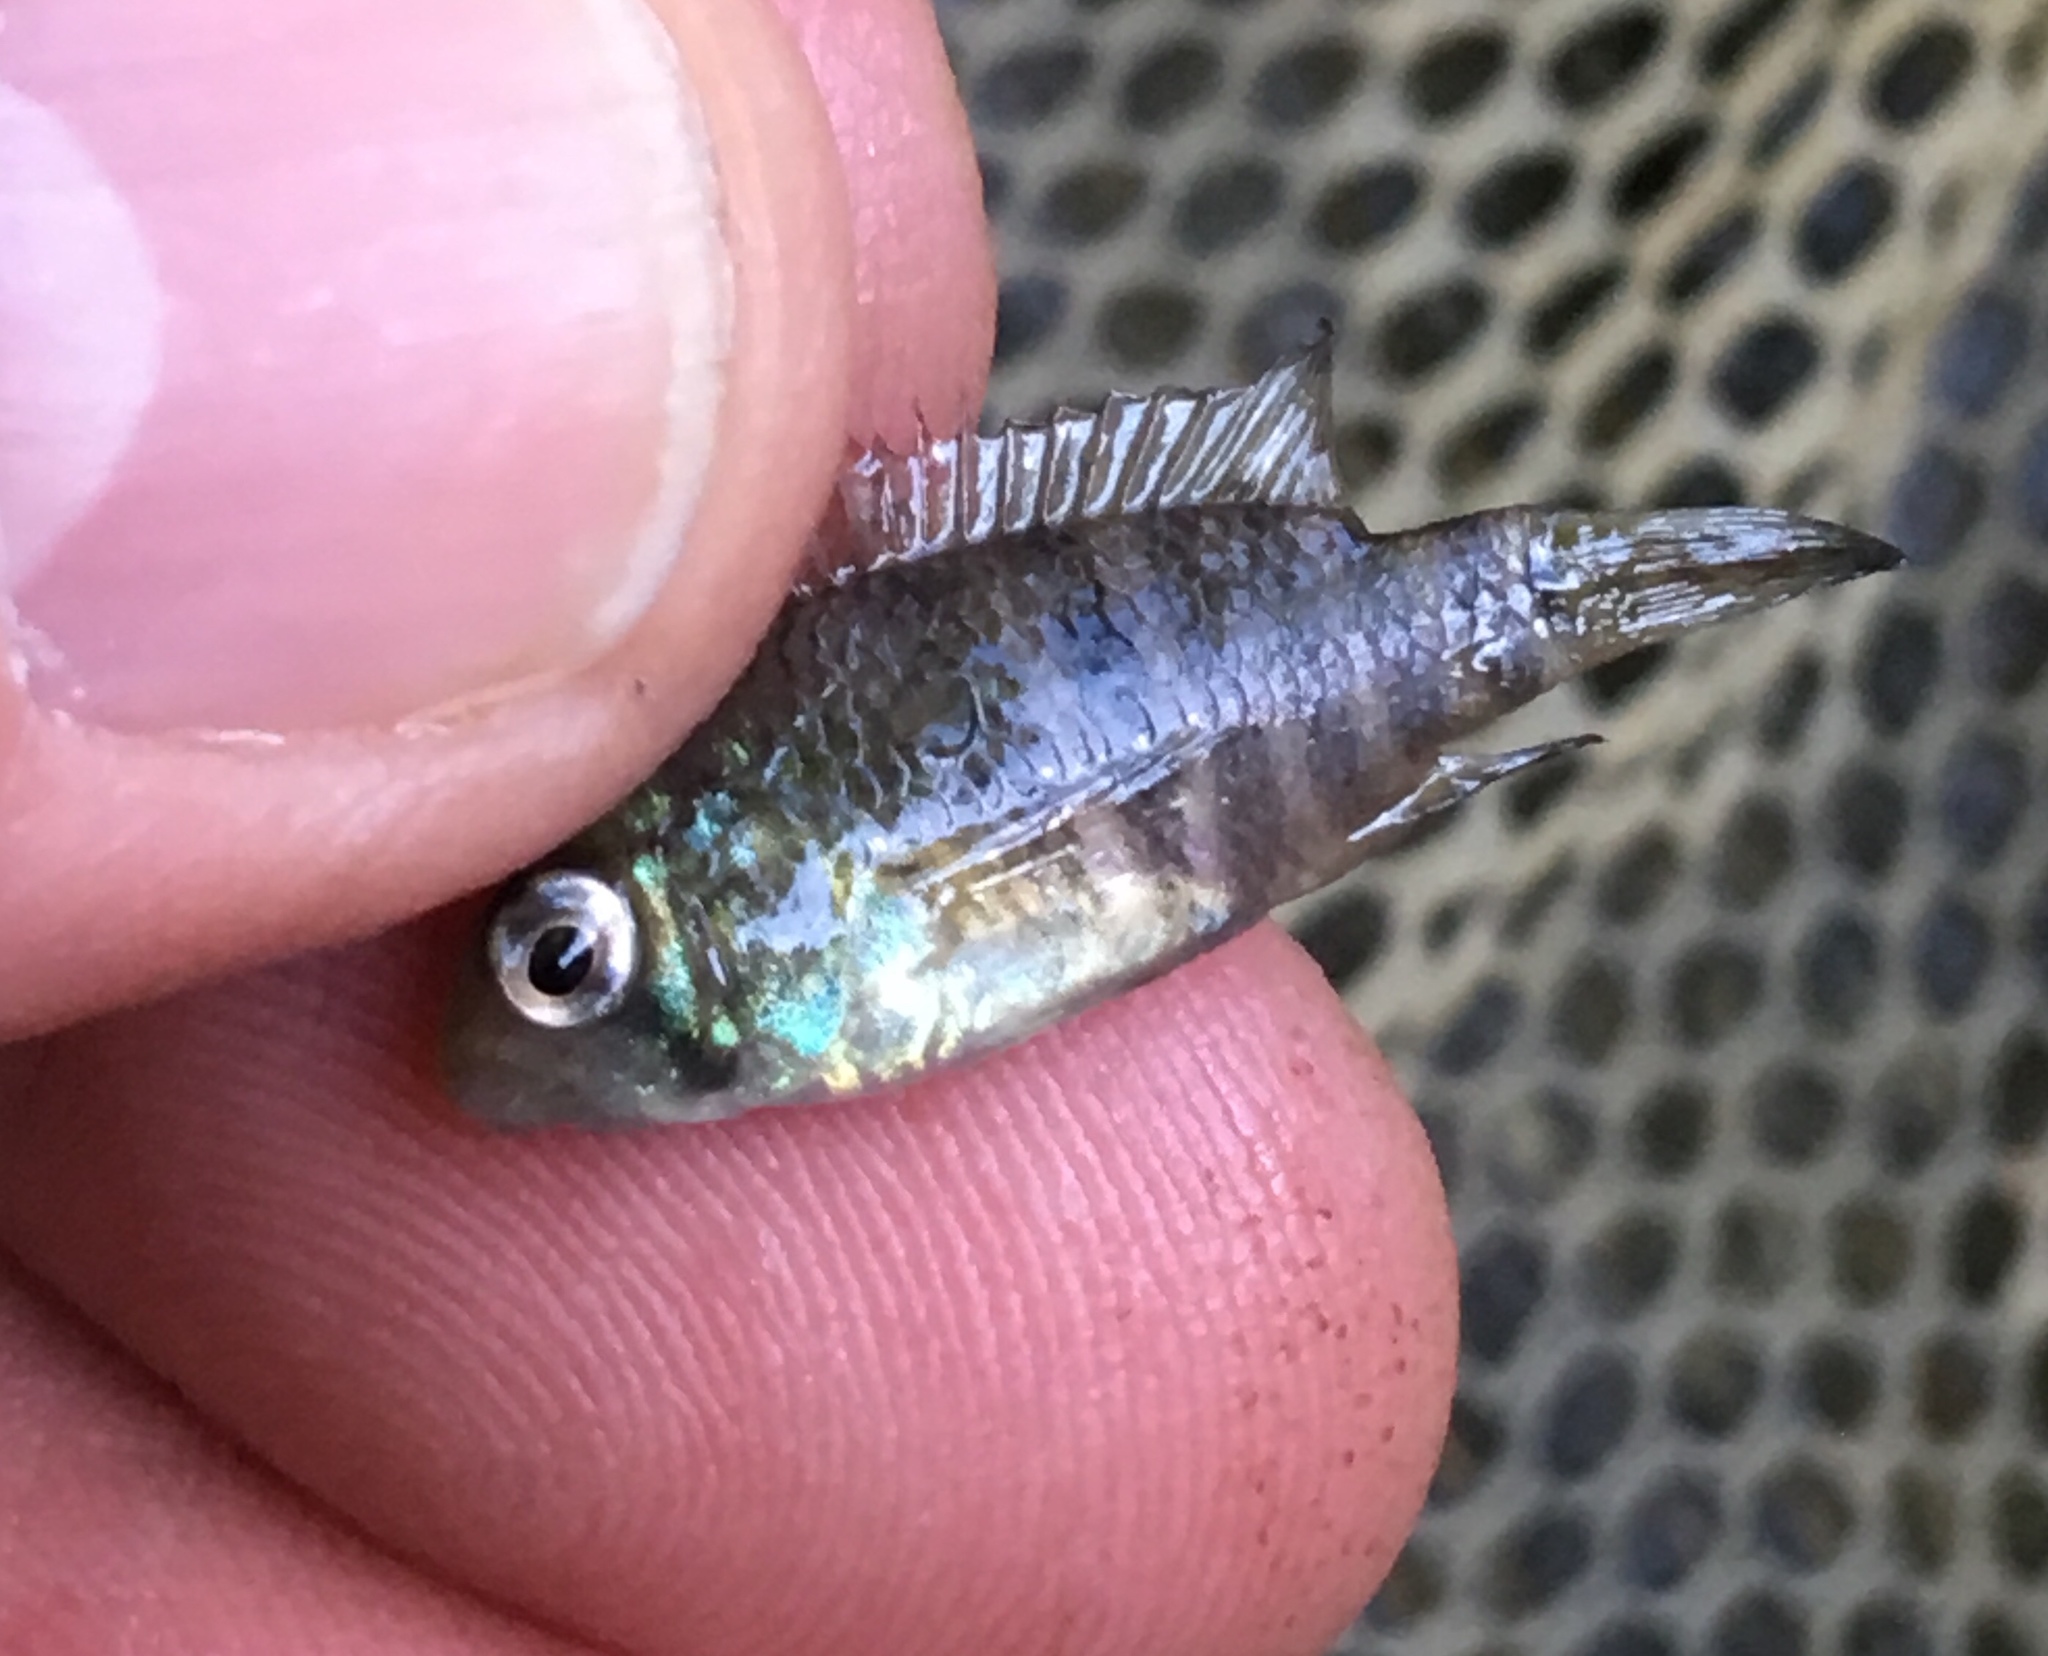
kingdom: Animalia
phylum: Chordata
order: Perciformes
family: Cichlidae
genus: Andinoacara
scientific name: Andinoacara latifrons
